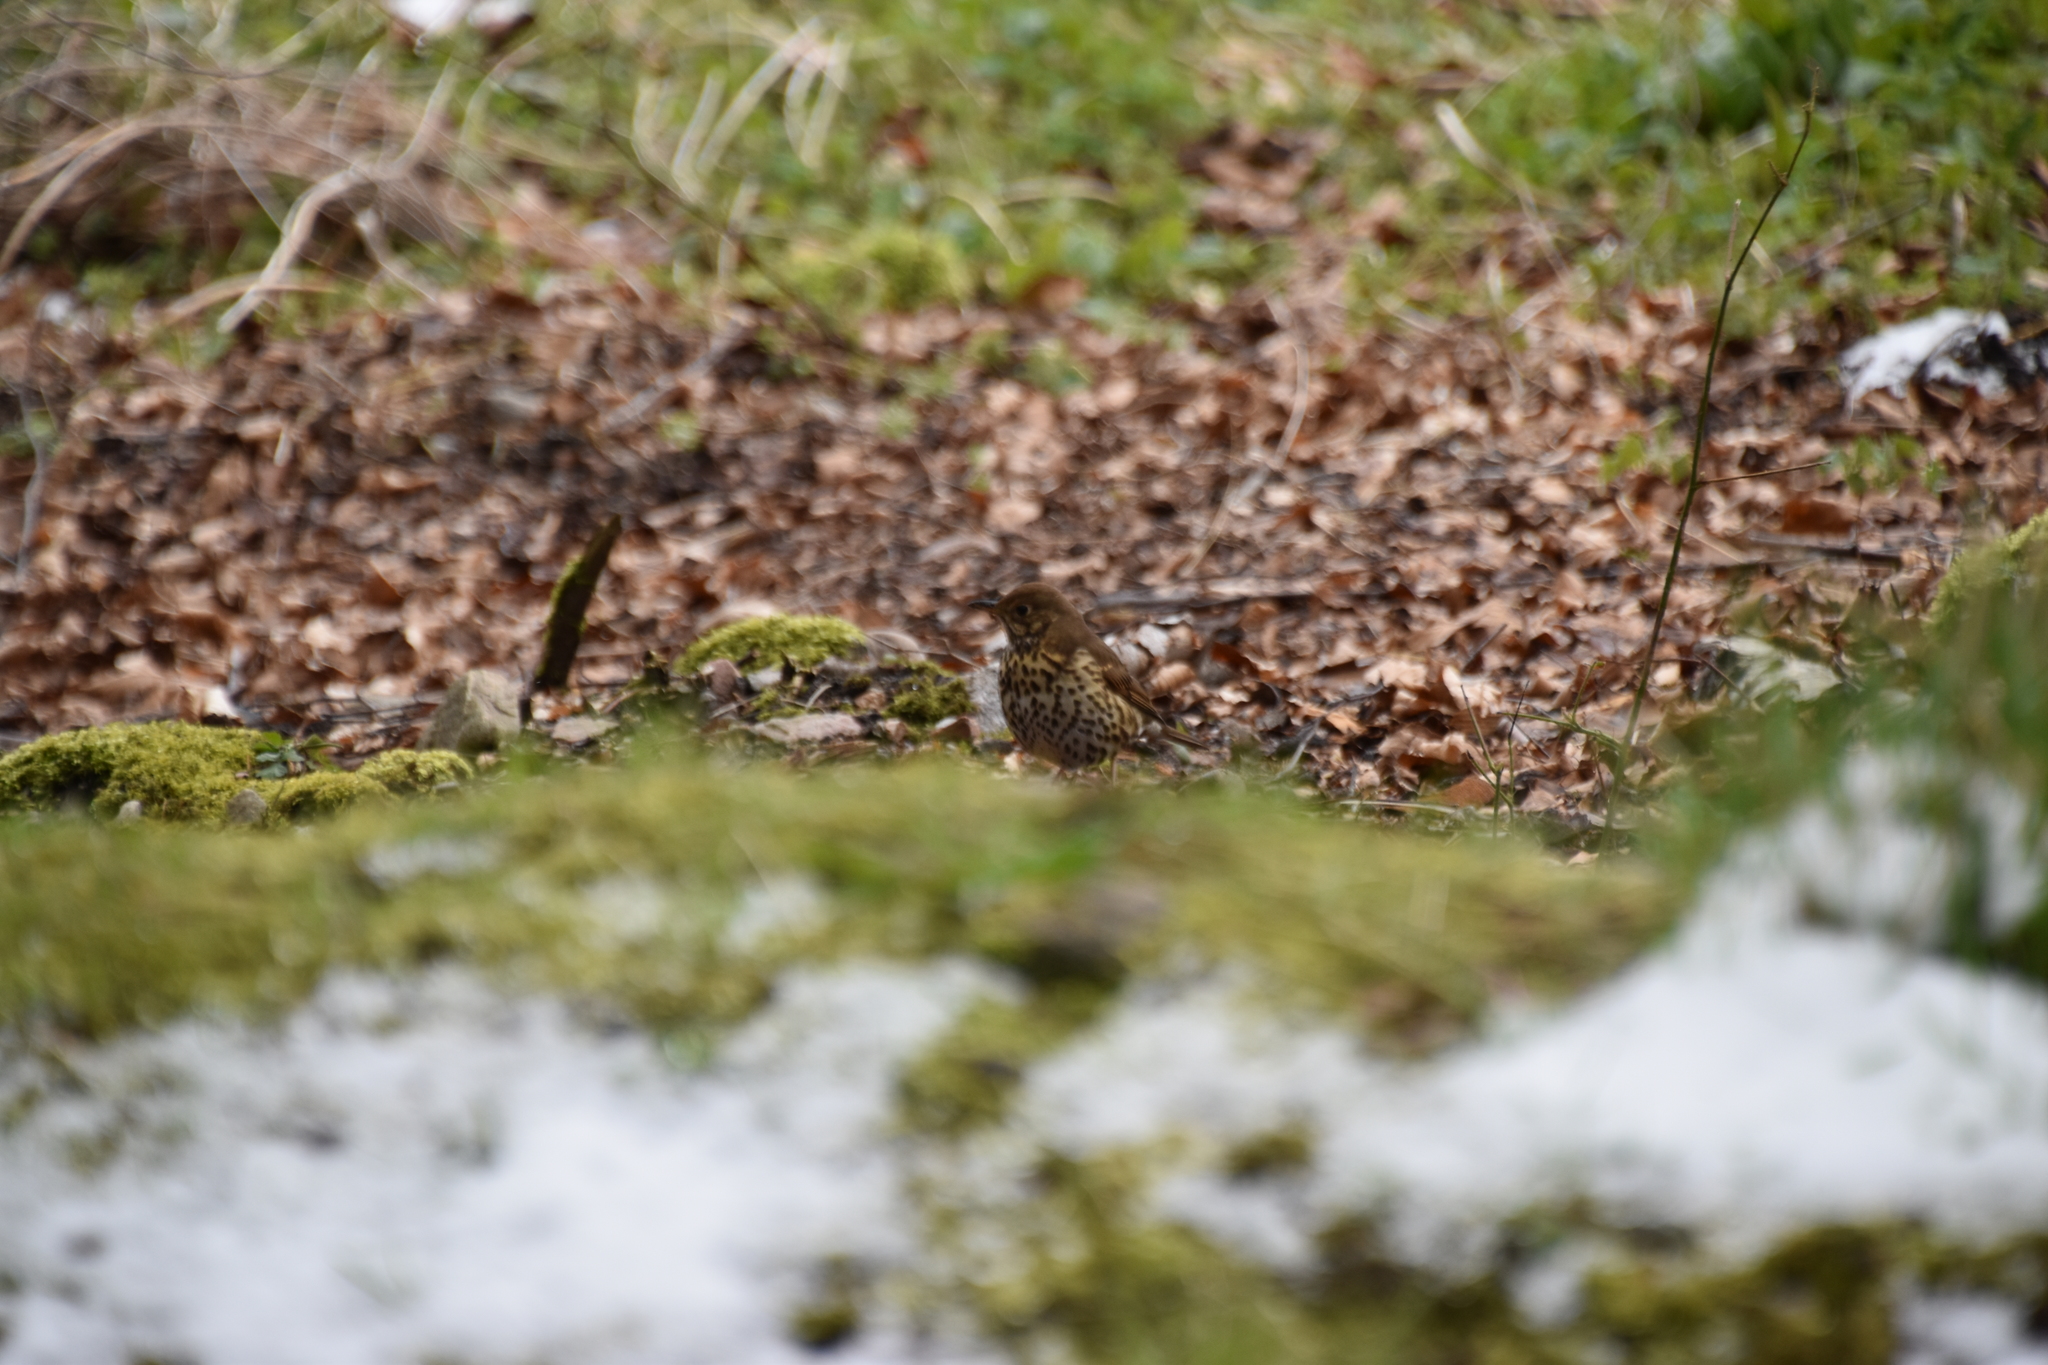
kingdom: Animalia
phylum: Chordata
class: Aves
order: Passeriformes
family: Turdidae
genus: Turdus
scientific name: Turdus philomelos
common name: Song thrush
